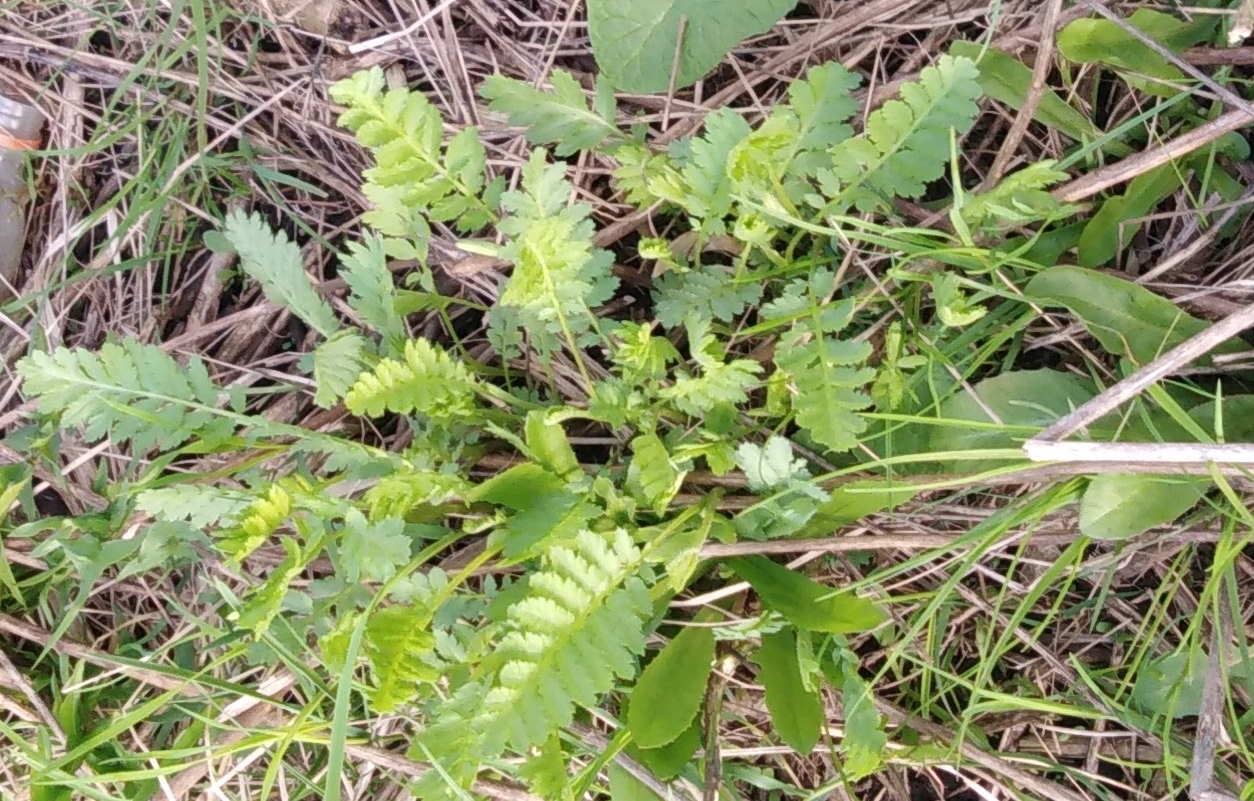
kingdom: Plantae
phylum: Tracheophyta
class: Magnoliopsida
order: Asterales
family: Asteraceae
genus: Tanacetum
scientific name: Tanacetum vulgare
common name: Common tansy
